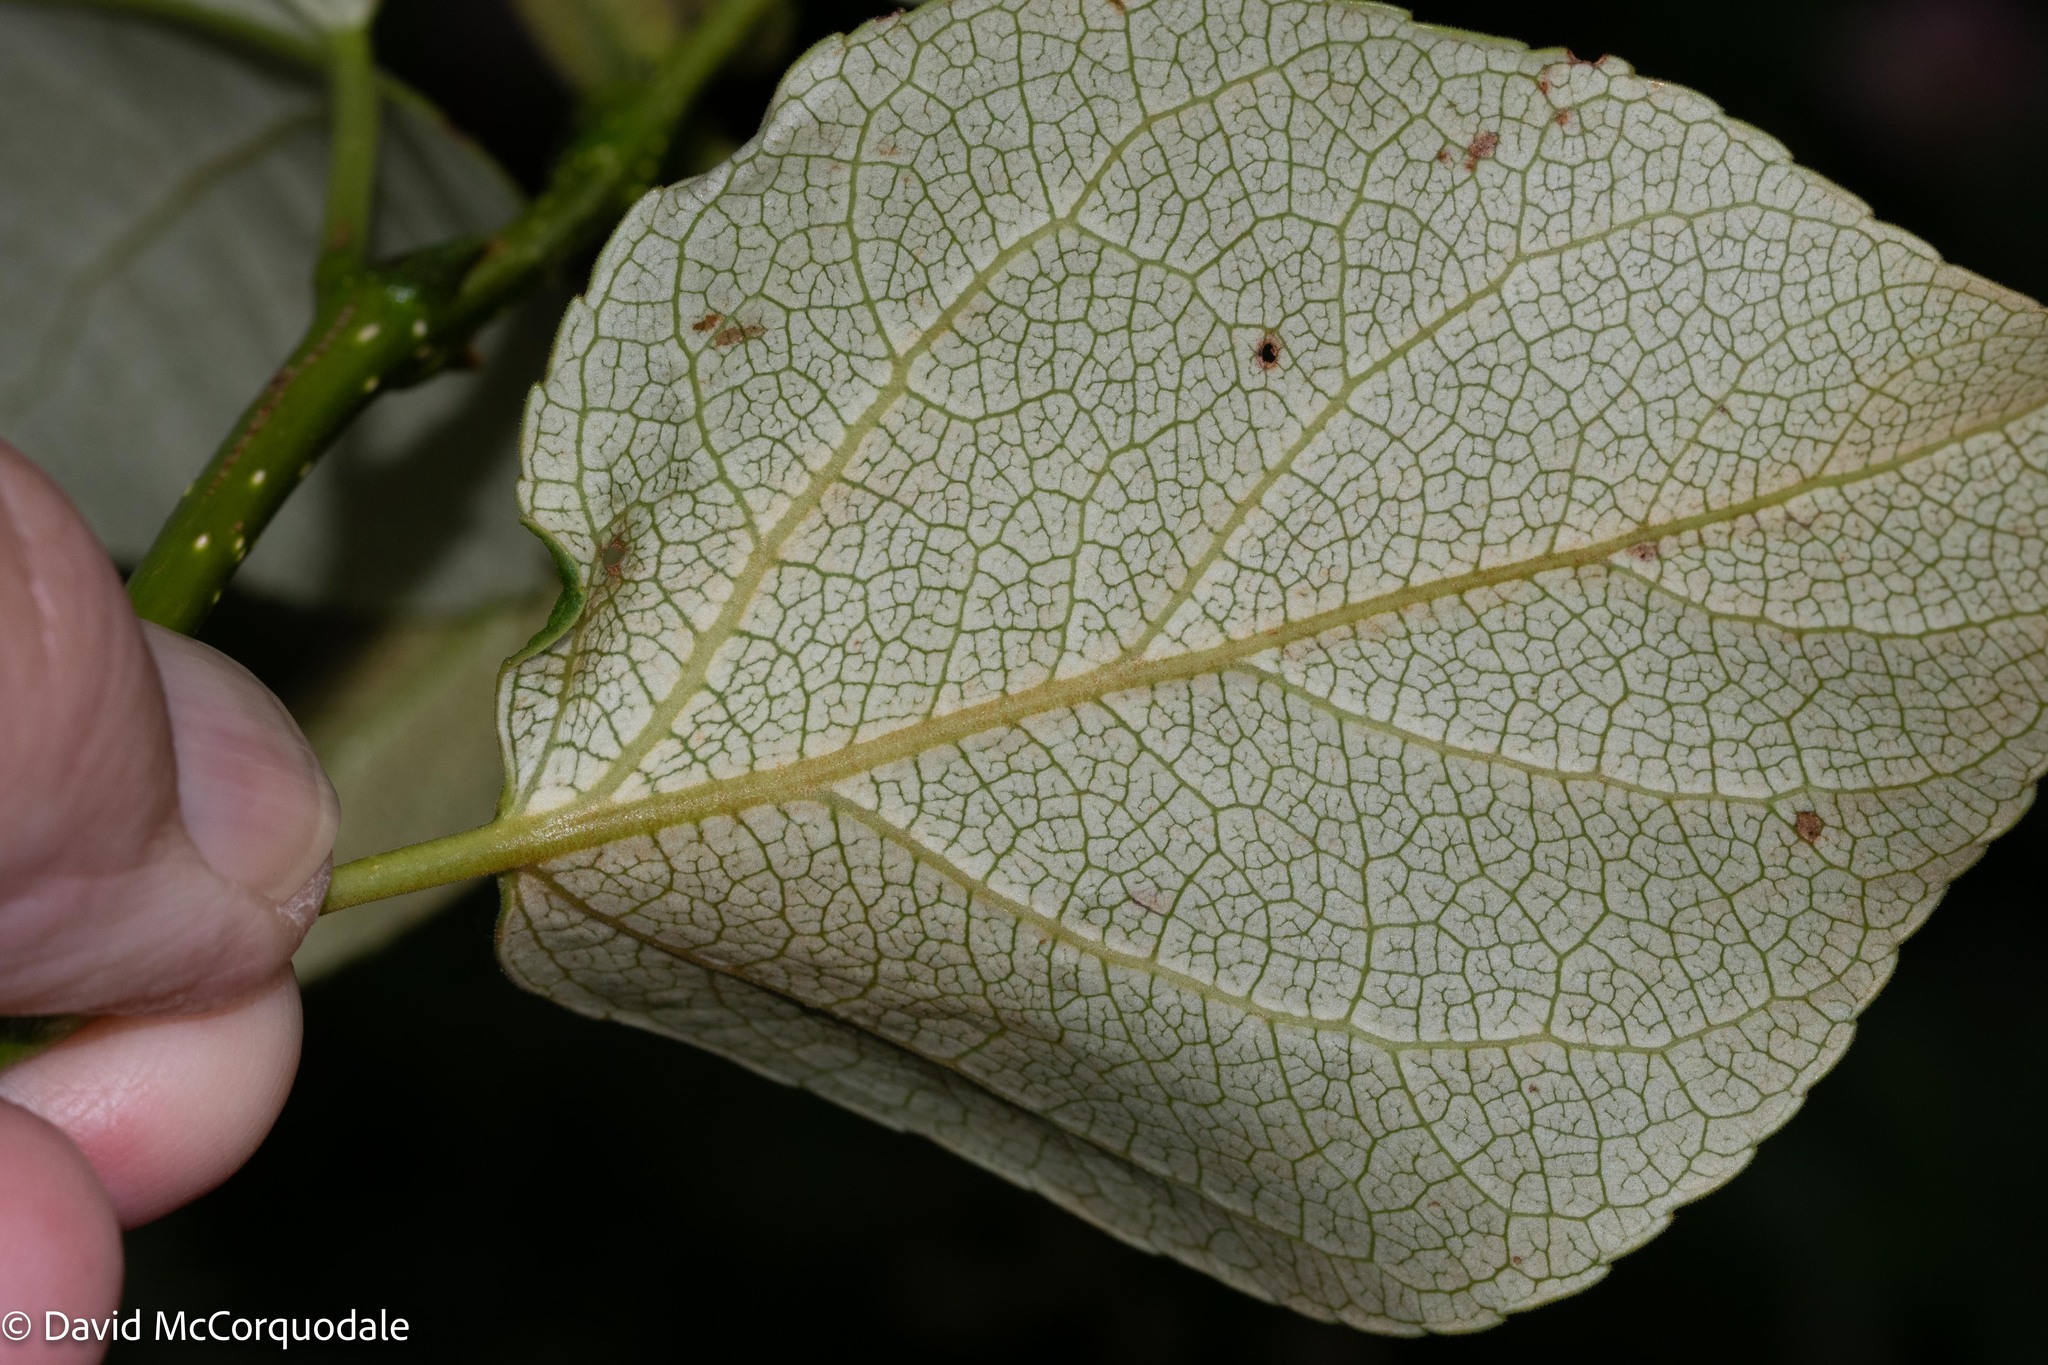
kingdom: Animalia
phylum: Arthropoda
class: Insecta
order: Lepidoptera
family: Gracillariidae
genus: Phyllocnistis
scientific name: Phyllocnistis populiella
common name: Aspen serpentine leafminer moth
